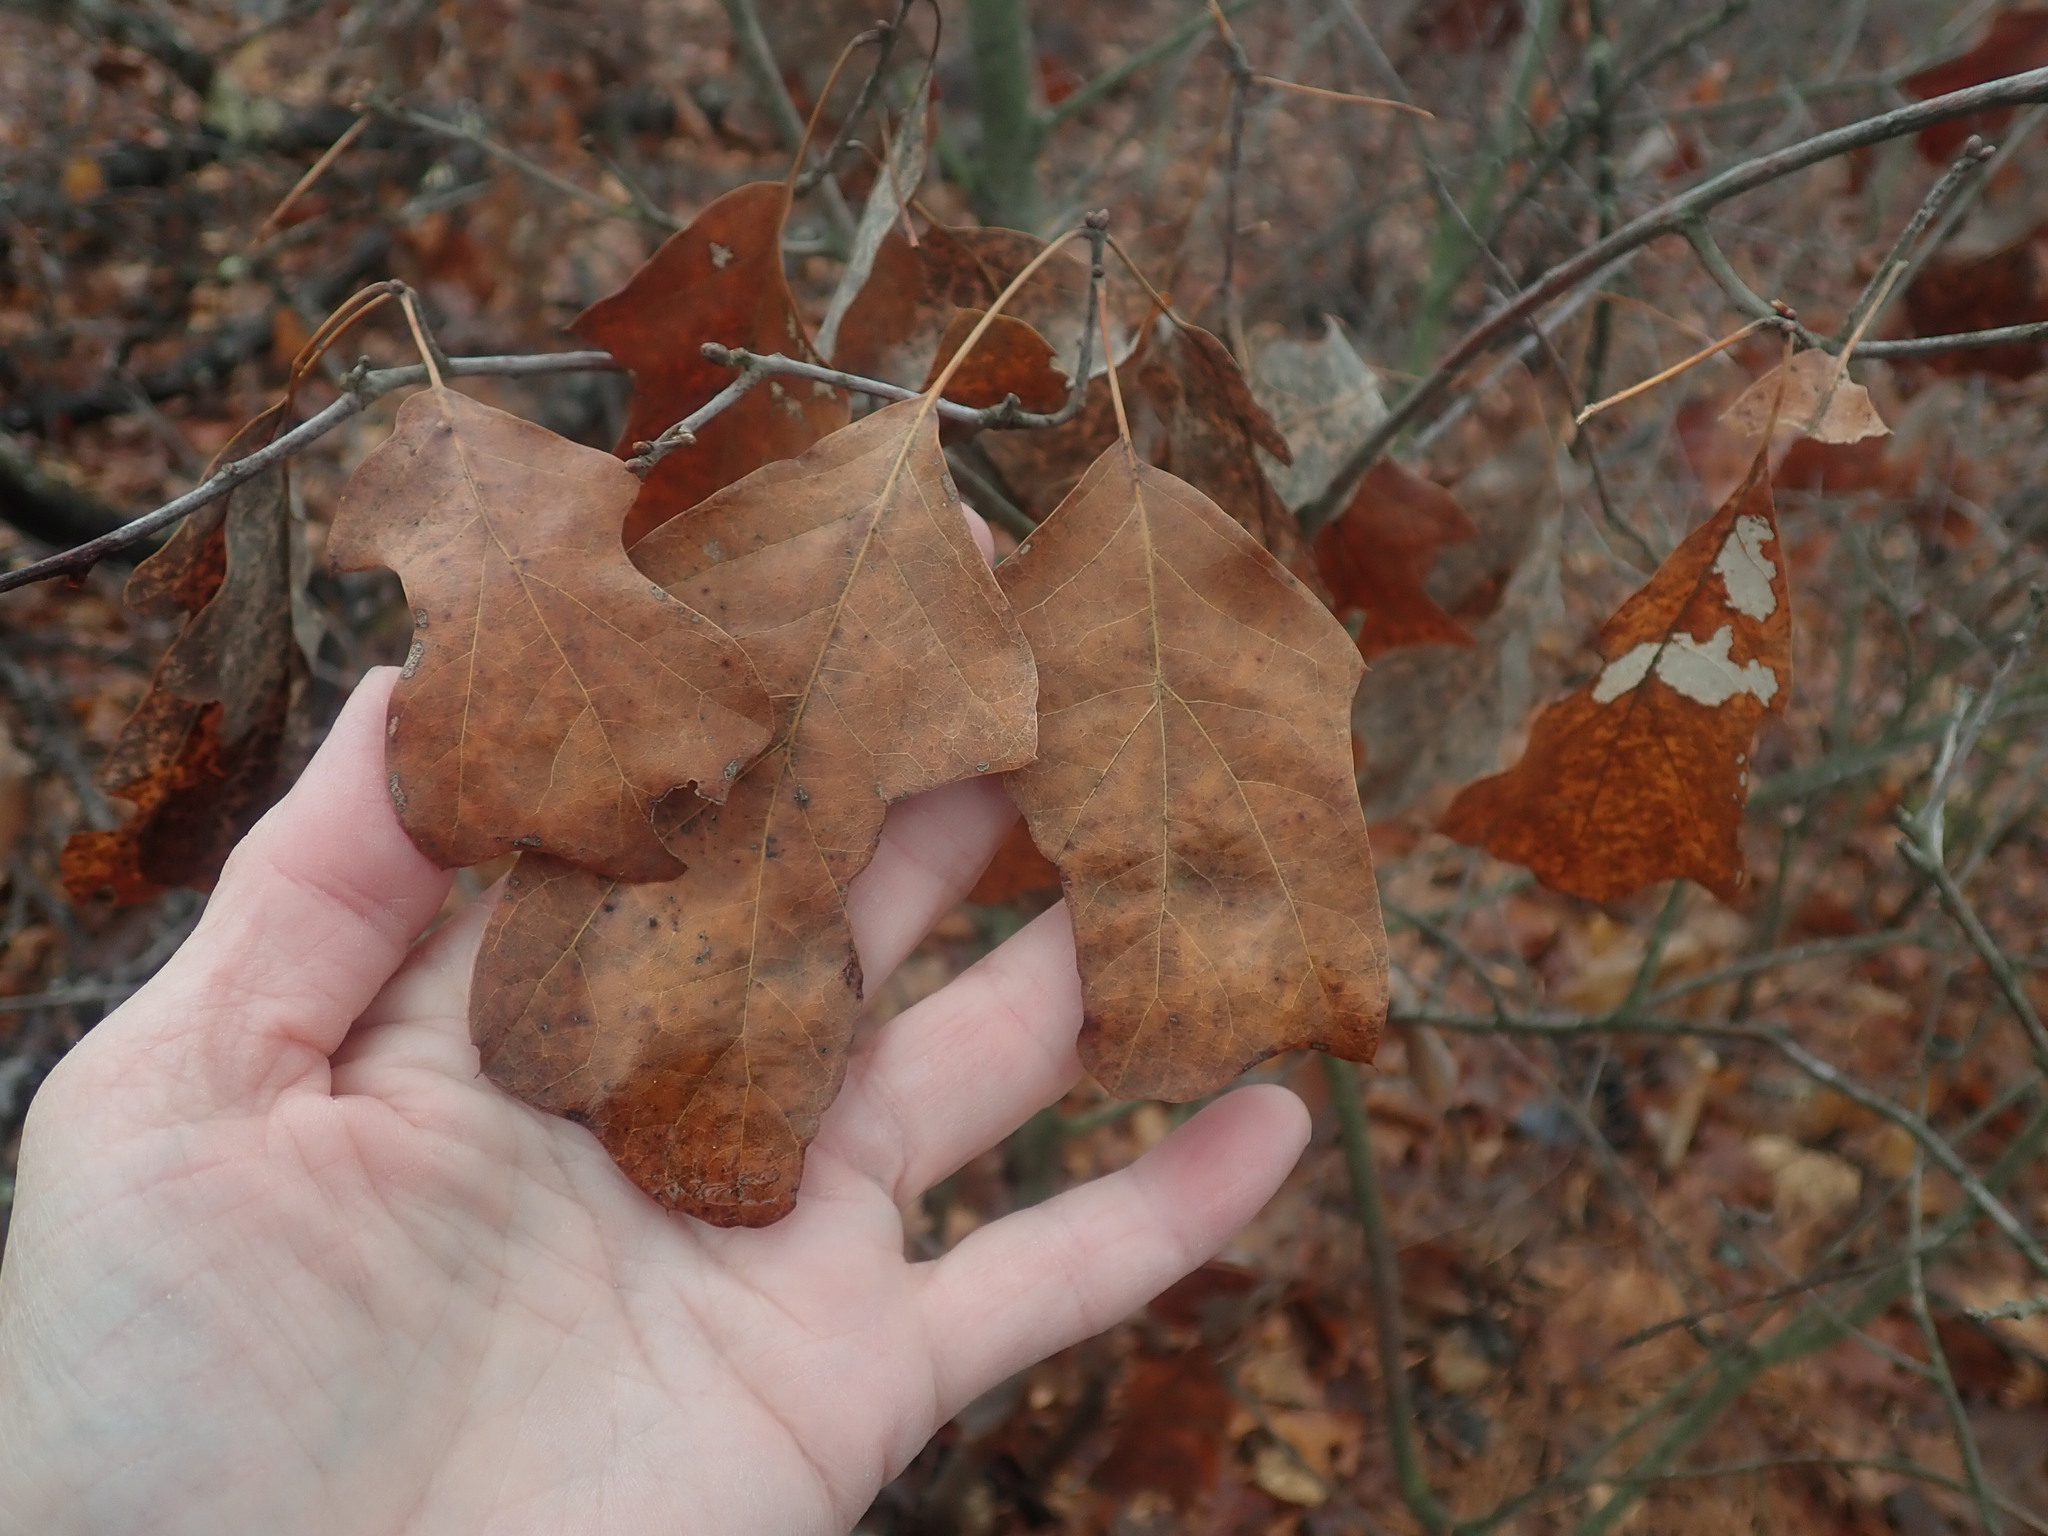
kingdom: Plantae
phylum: Tracheophyta
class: Magnoliopsida
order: Fagales
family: Fagaceae
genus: Quercus
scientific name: Quercus ilicifolia
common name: Bear oak
